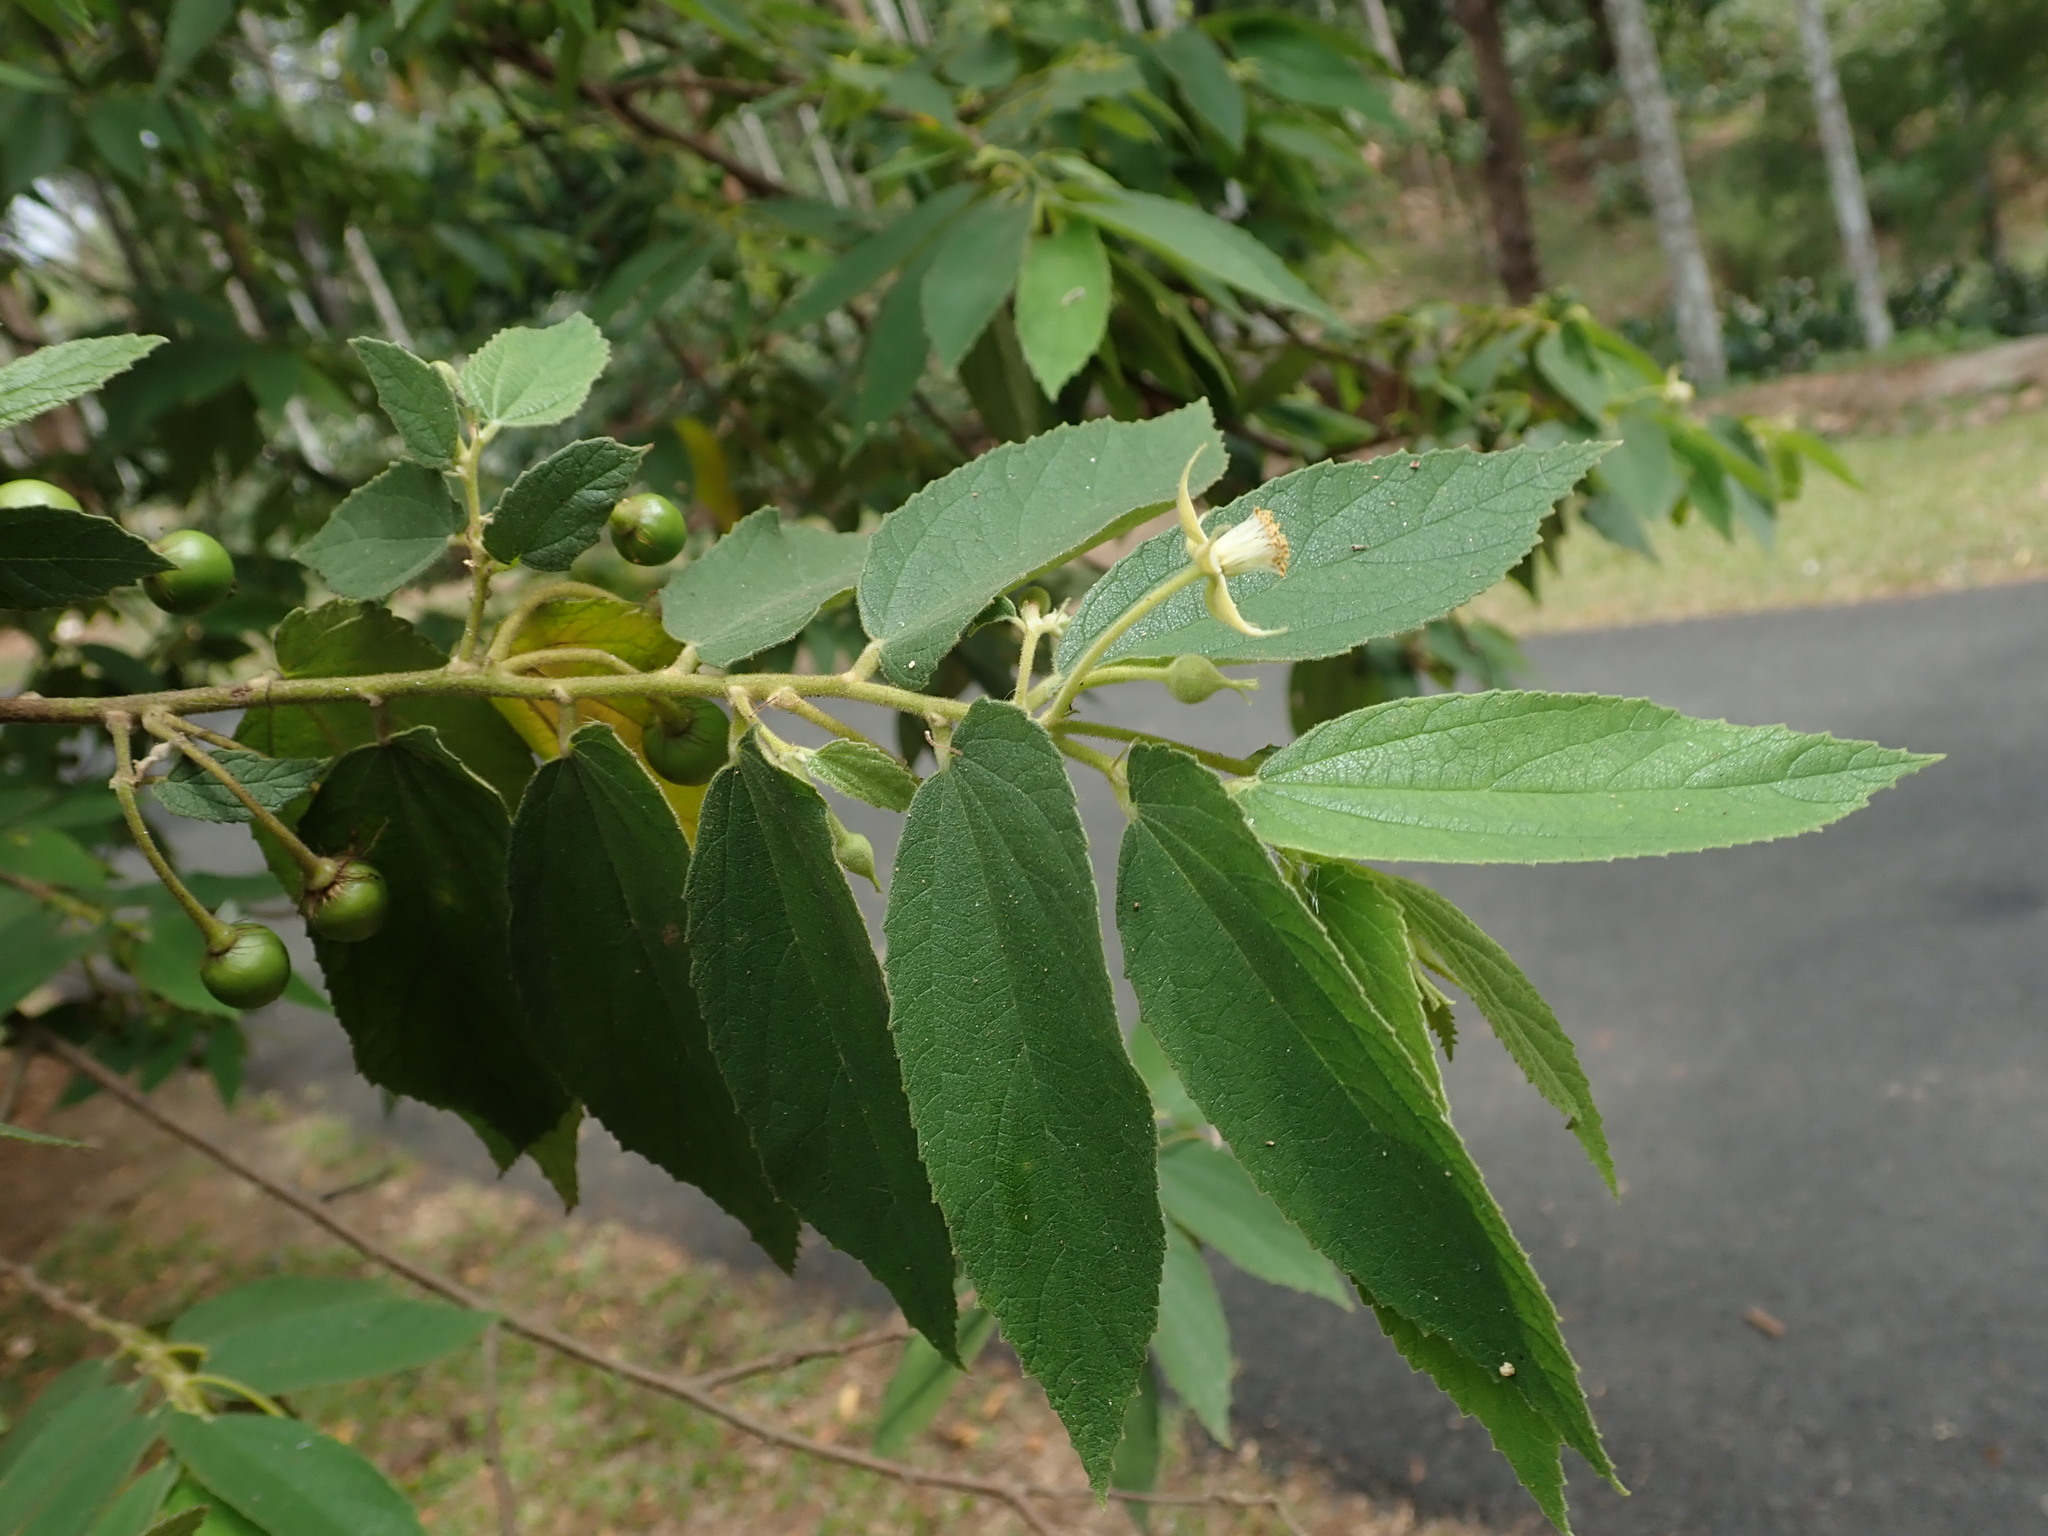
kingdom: Plantae
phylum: Tracheophyta
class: Magnoliopsida
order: Malvales
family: Muntingiaceae
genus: Muntingia
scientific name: Muntingia calabura
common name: Strawberrytree
